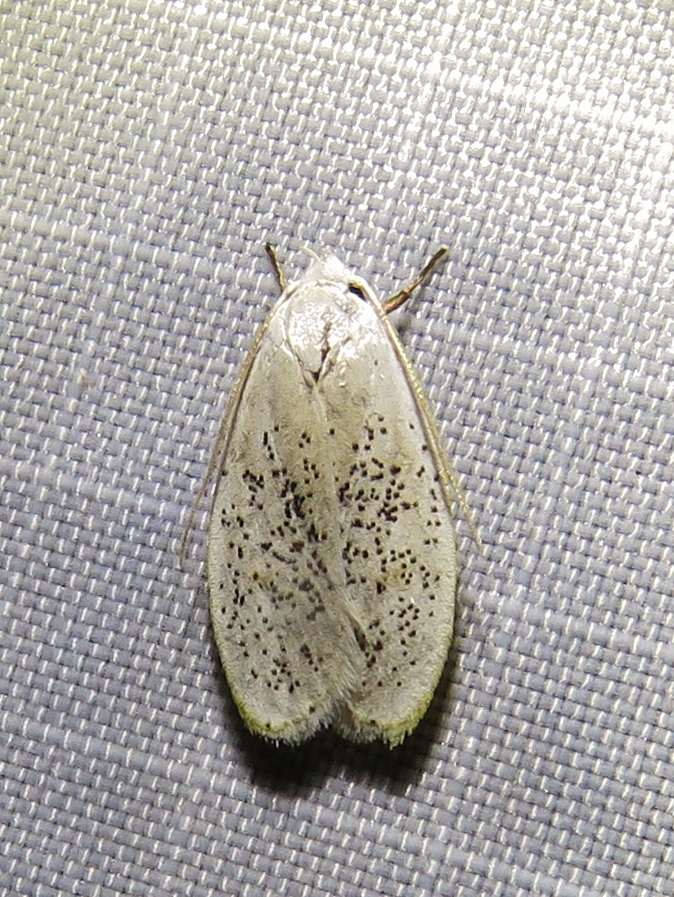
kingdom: Animalia
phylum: Arthropoda
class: Insecta
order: Lepidoptera
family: Peleopodidae
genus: Durrantia
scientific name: Durrantia piperatella
